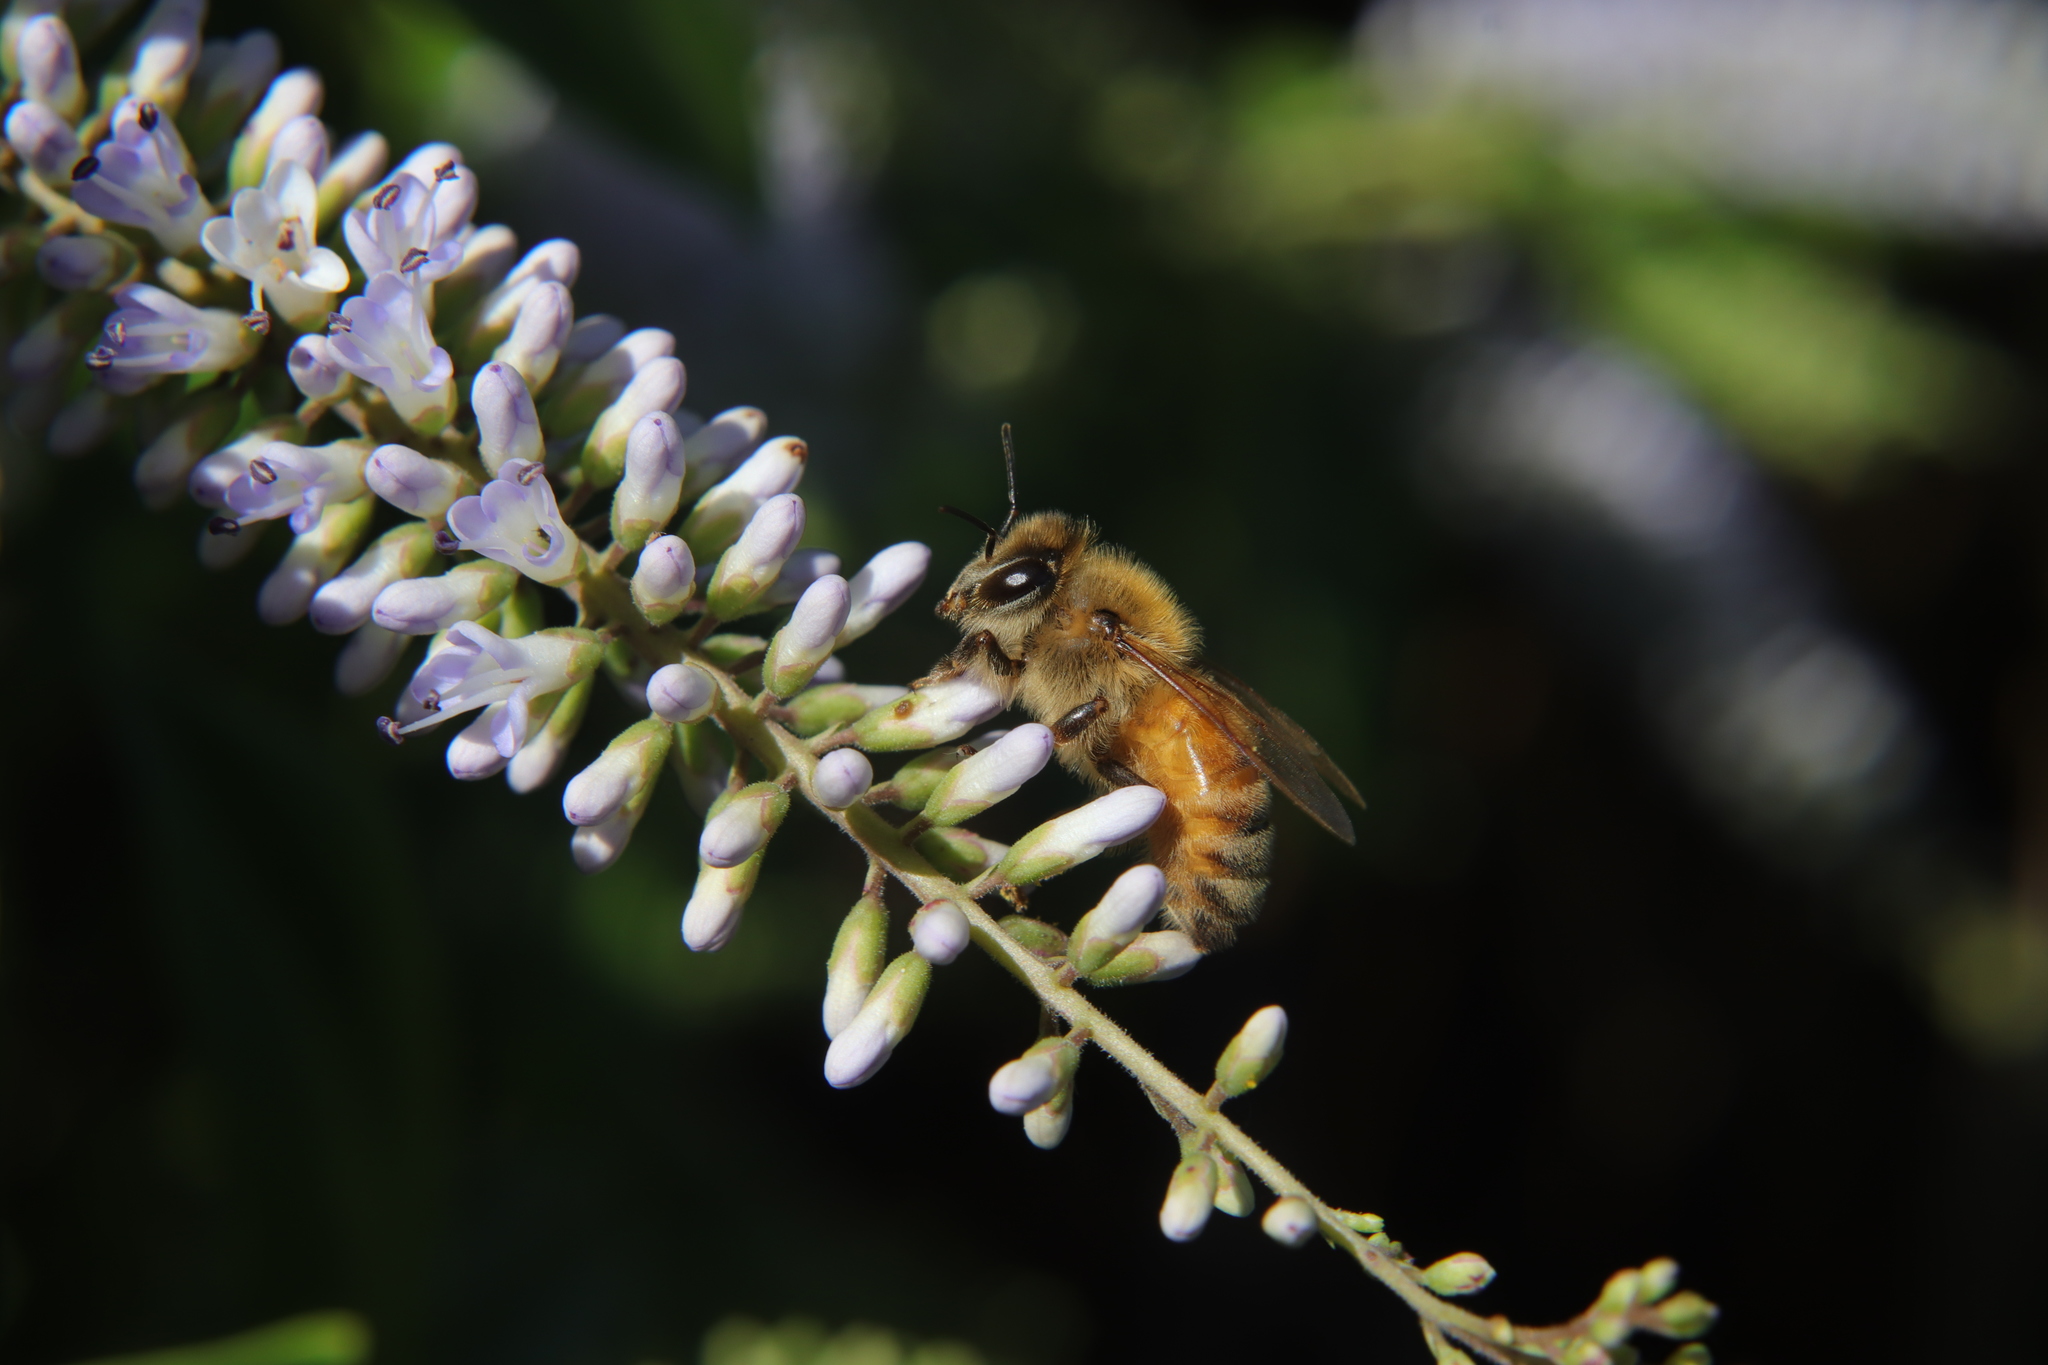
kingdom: Animalia
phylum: Arthropoda
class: Insecta
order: Hymenoptera
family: Apidae
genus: Apis
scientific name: Apis mellifera
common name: Honey bee
